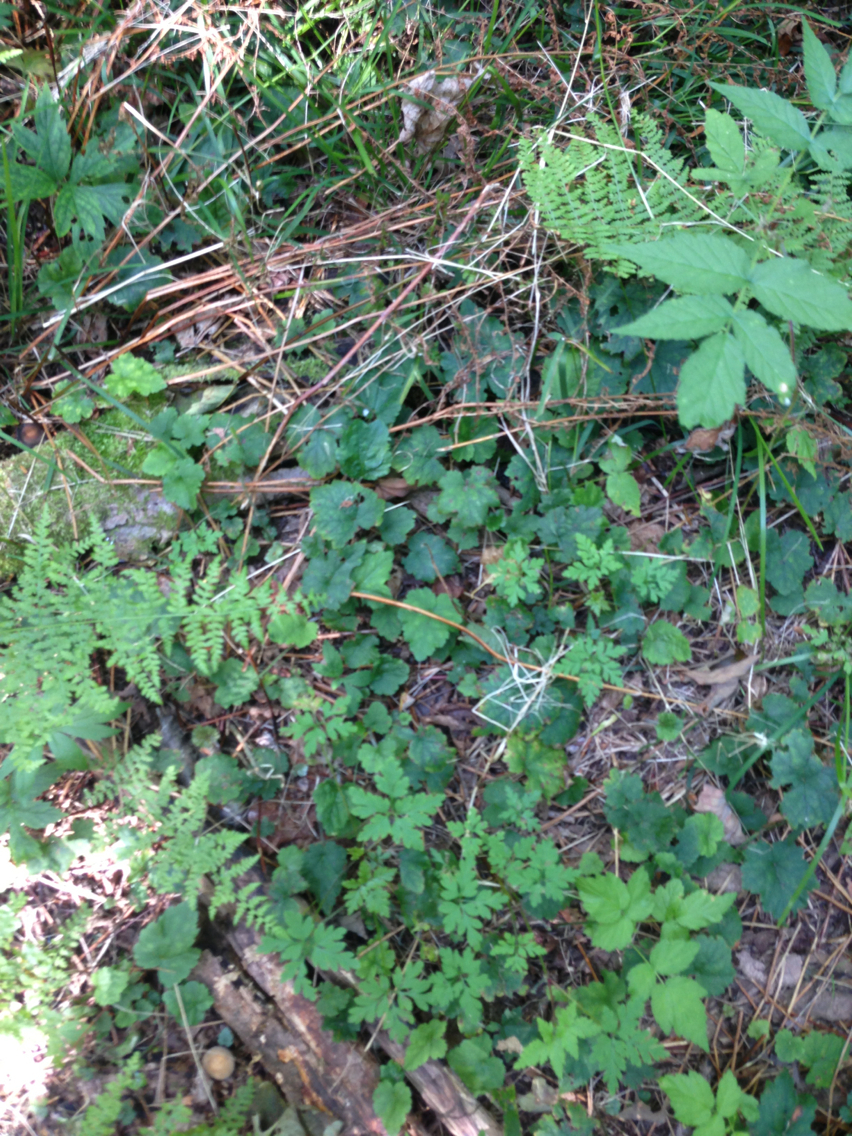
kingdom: Plantae
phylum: Tracheophyta
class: Magnoliopsida
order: Saxifragales
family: Saxifragaceae
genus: Tiarella
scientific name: Tiarella stolonifera
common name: Stoloniferous foamflower
